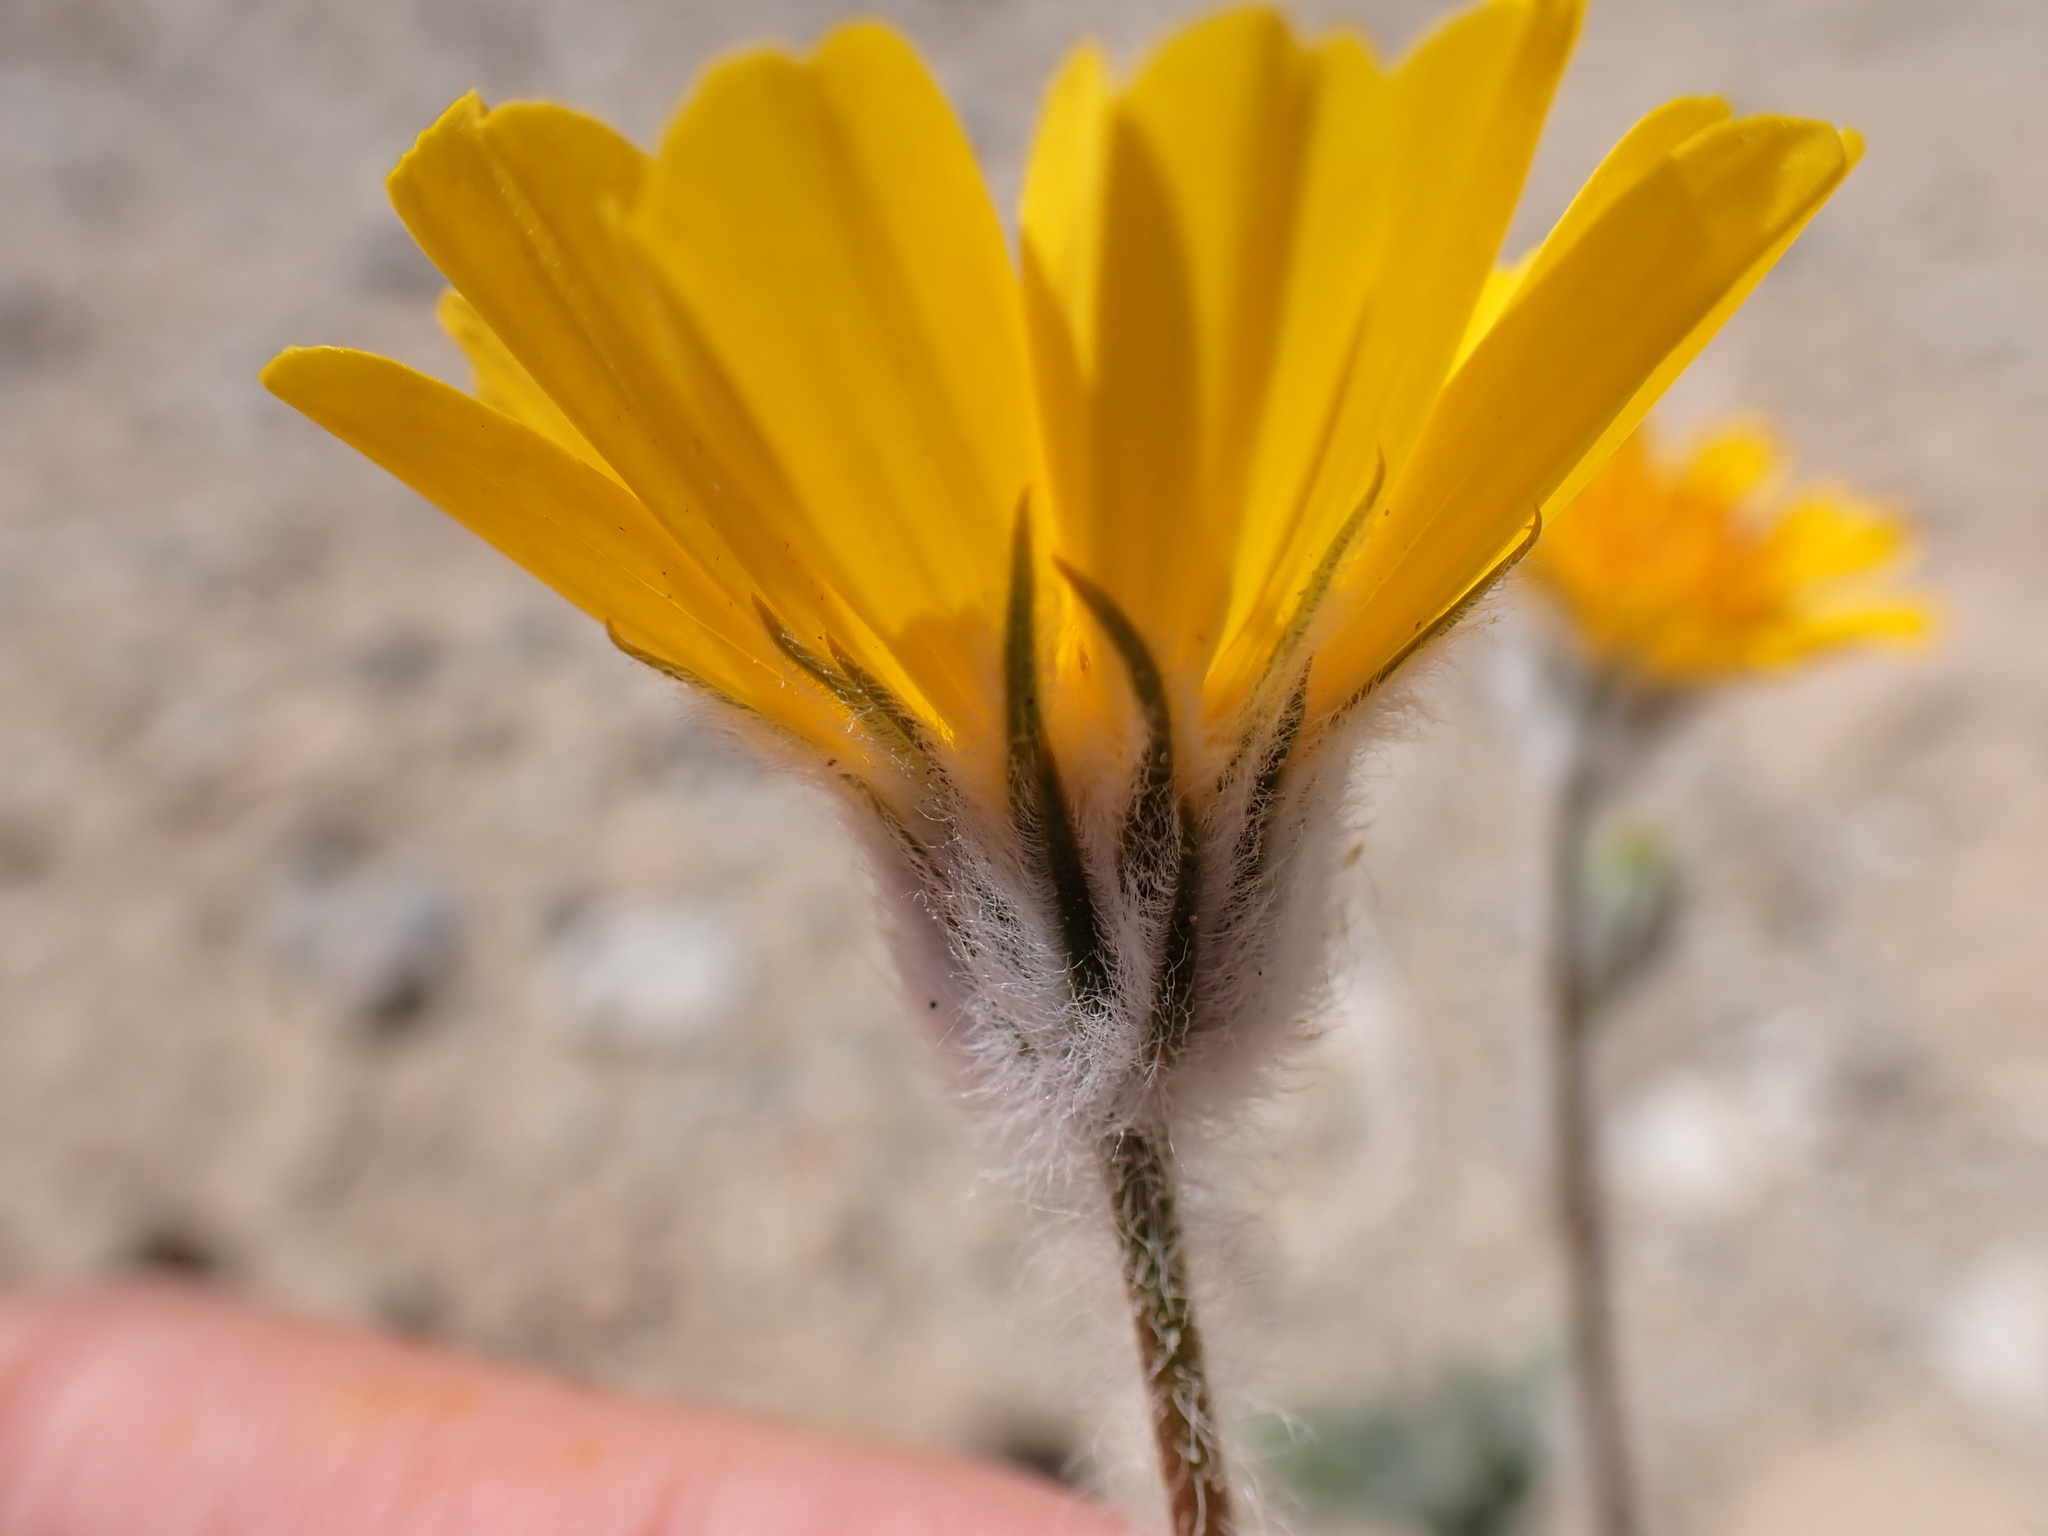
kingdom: Plantae
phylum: Tracheophyta
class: Magnoliopsida
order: Asterales
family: Asteraceae
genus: Geraea
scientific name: Geraea canescens
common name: Desert-gold
